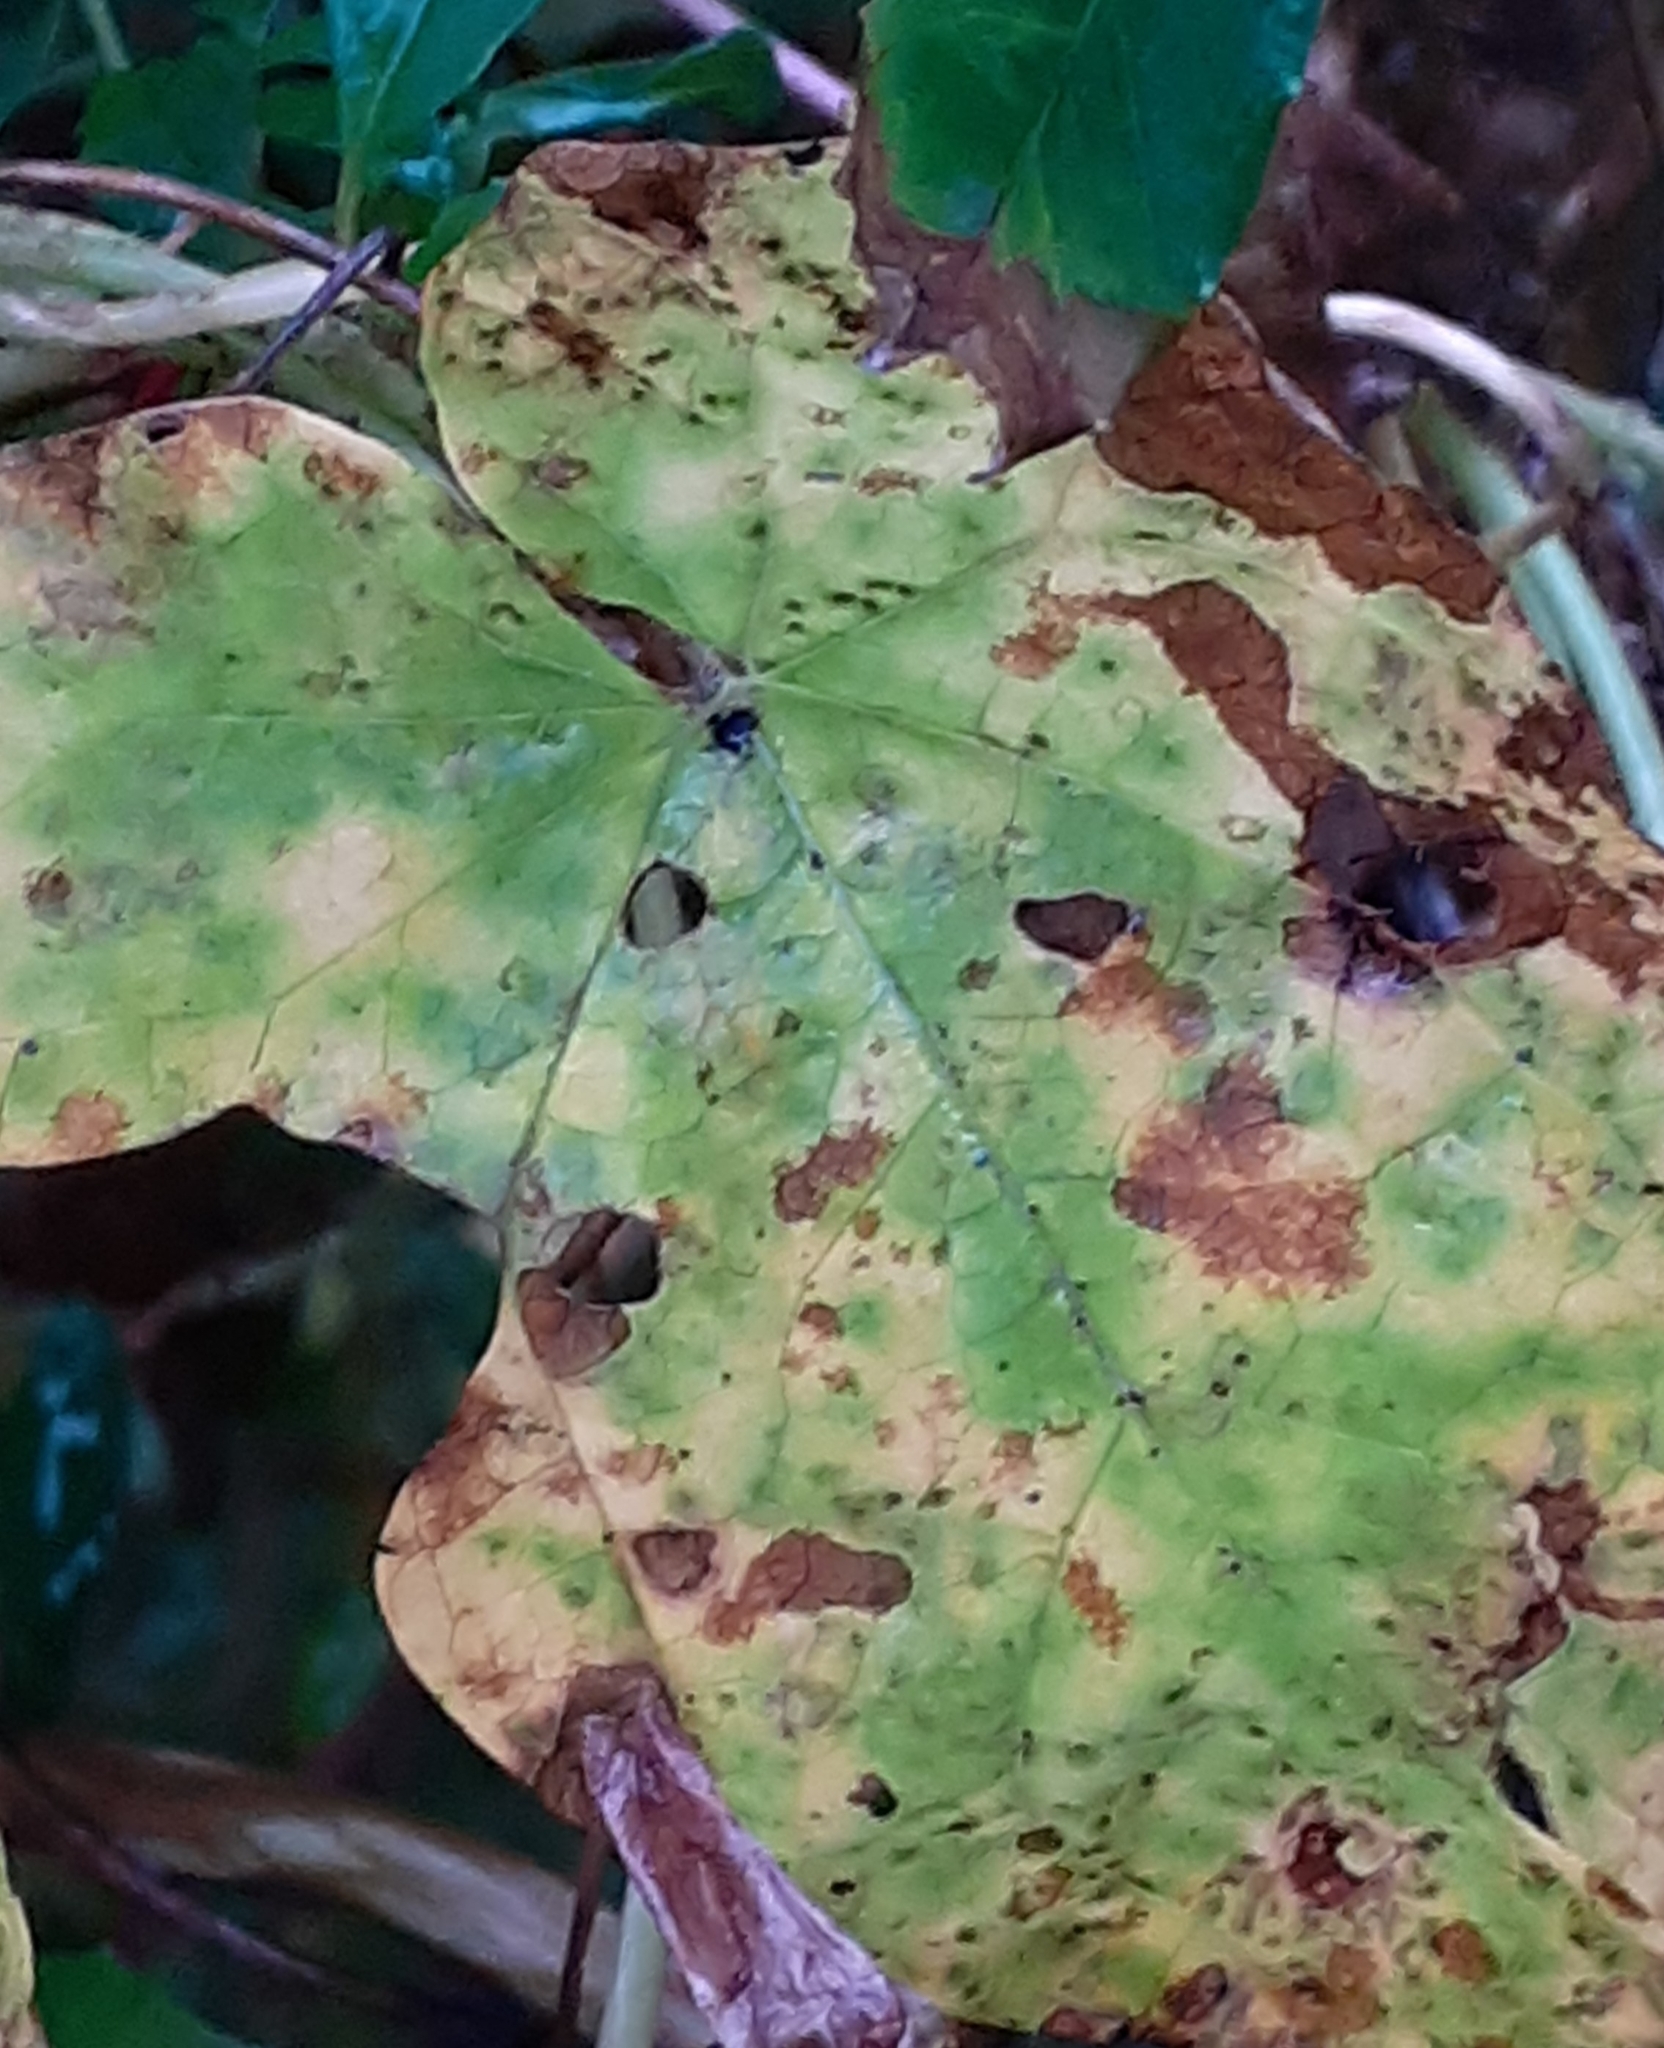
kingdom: Fungi
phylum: Basidiomycota
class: Pucciniomycetes
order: Pucciniales
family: Pucciniaceae
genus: Puccinia
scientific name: Puccinia convolvuli
